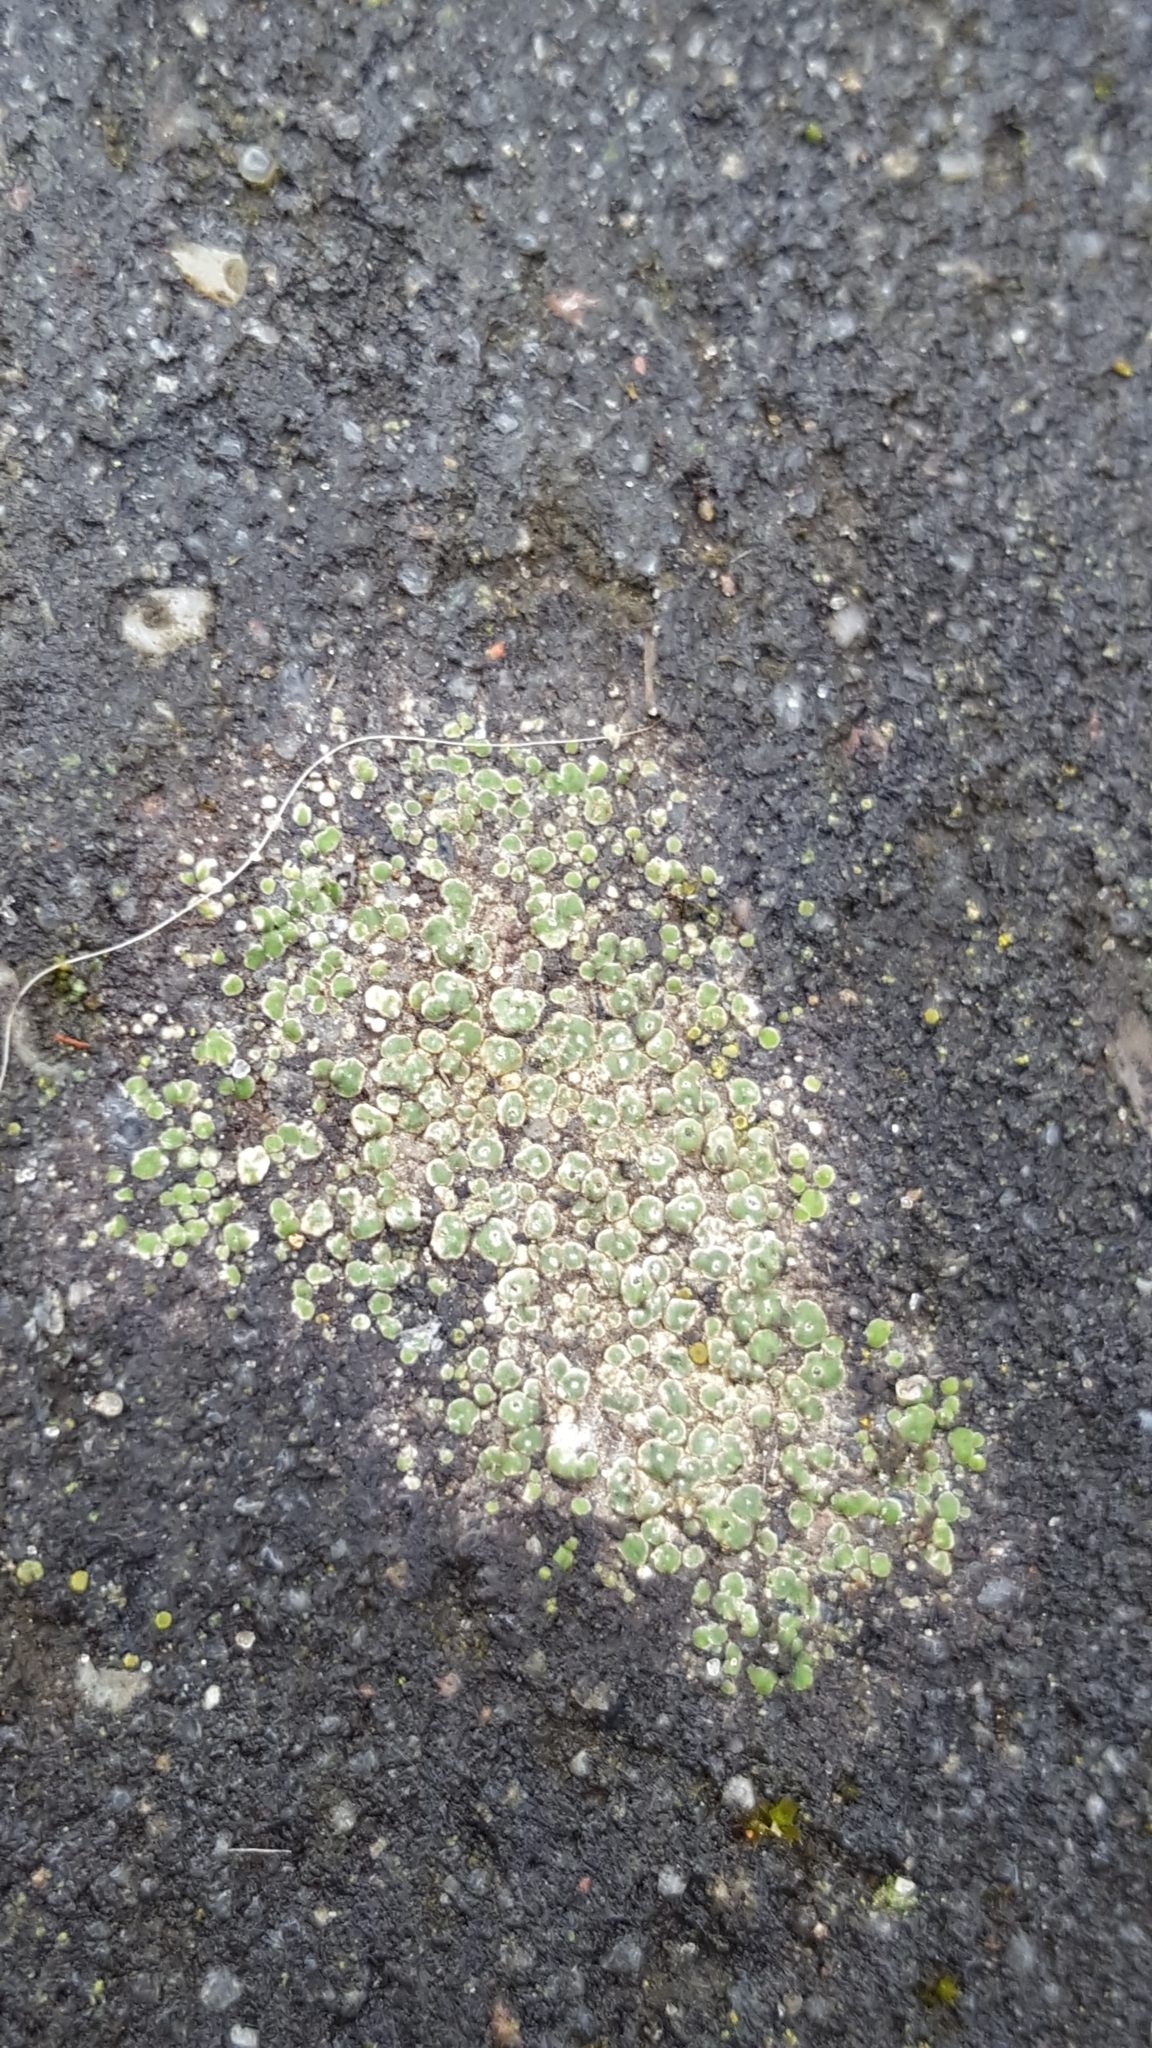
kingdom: Fungi
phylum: Ascomycota
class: Lecanoromycetes
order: Pertusariales
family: Megasporaceae
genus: Circinaria
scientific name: Circinaria contorta
